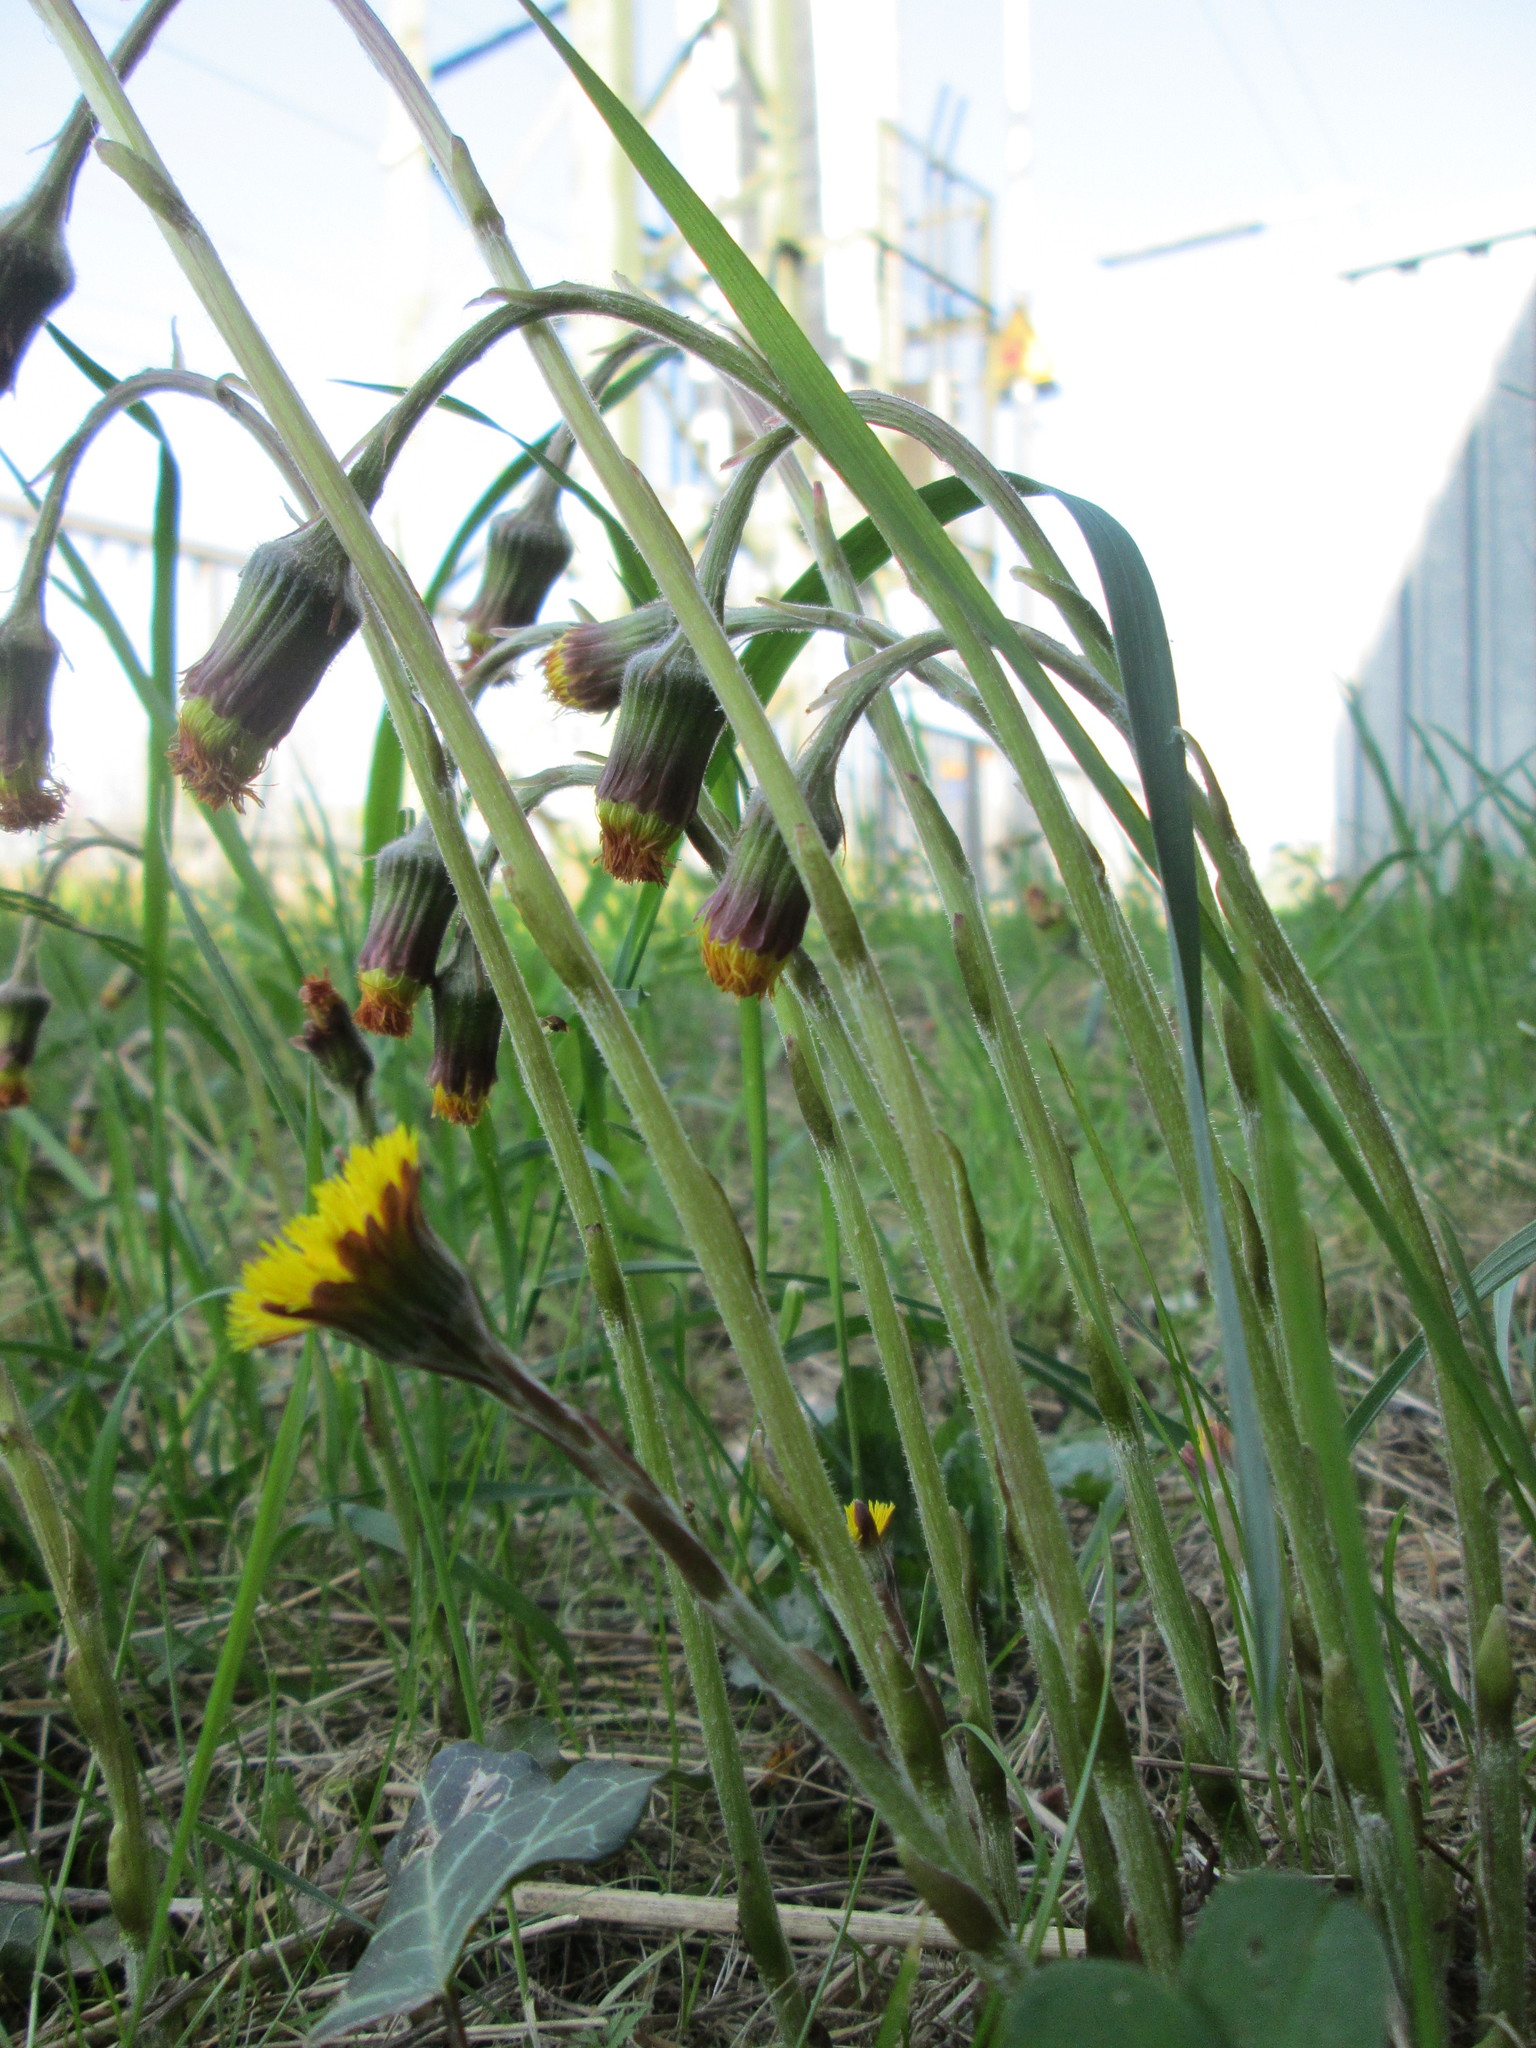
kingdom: Plantae
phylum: Tracheophyta
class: Magnoliopsida
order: Asterales
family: Asteraceae
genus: Tussilago
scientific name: Tussilago farfara
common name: Coltsfoot
